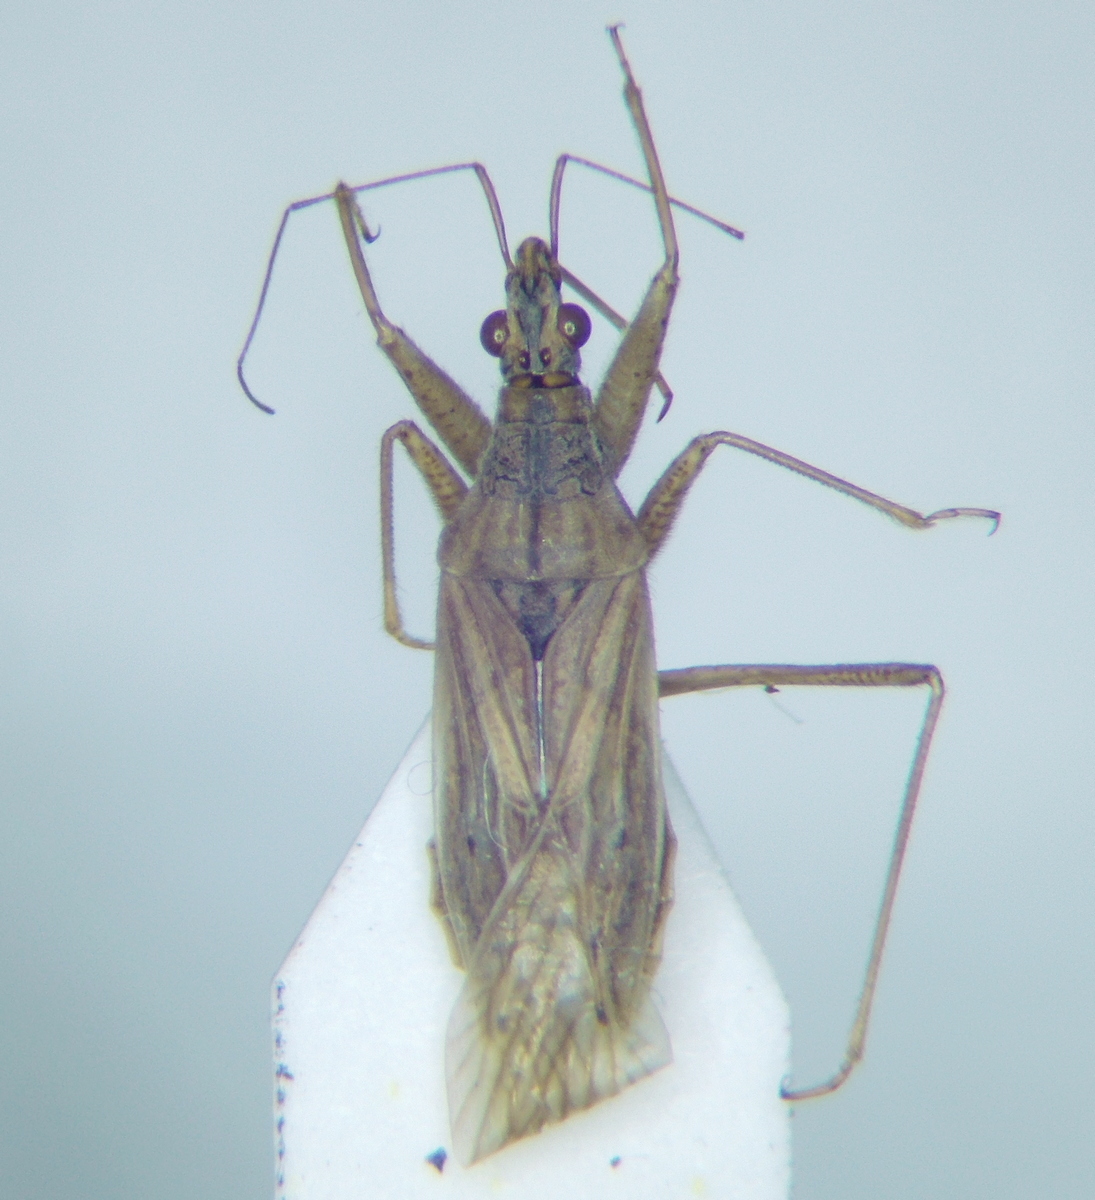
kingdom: Animalia
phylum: Arthropoda
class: Insecta
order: Hemiptera
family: Nabidae
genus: Nabis
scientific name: Nabis pseudoferus
